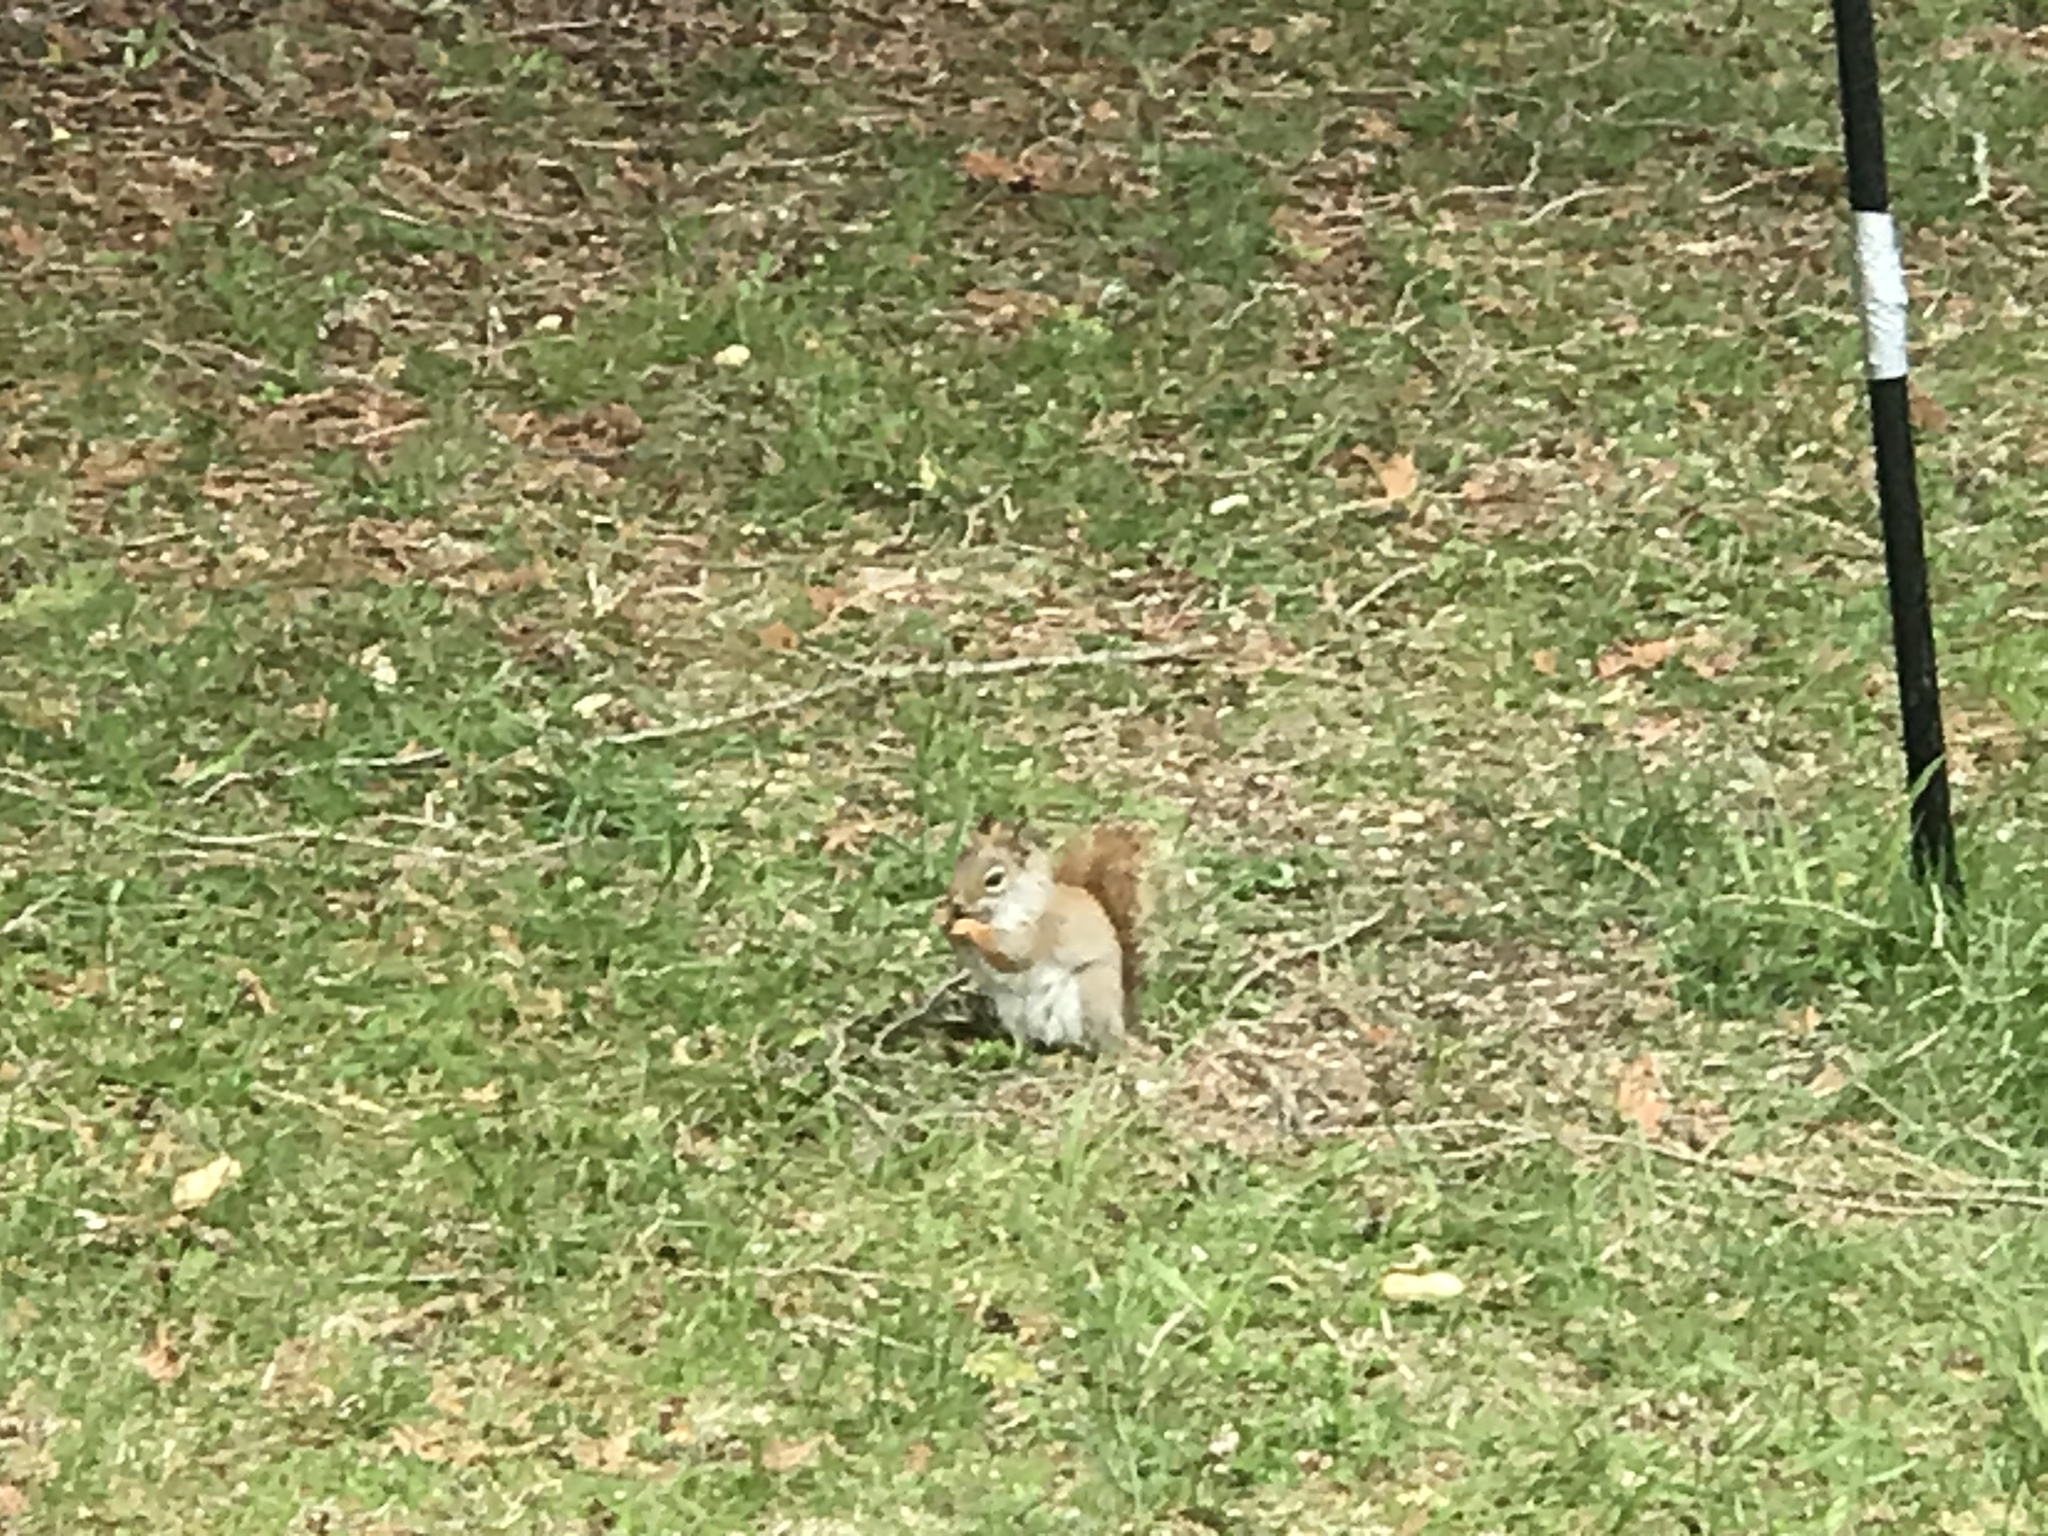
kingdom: Animalia
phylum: Chordata
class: Mammalia
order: Rodentia
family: Sciuridae
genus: Tamiasciurus
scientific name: Tamiasciurus hudsonicus
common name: Red squirrel
